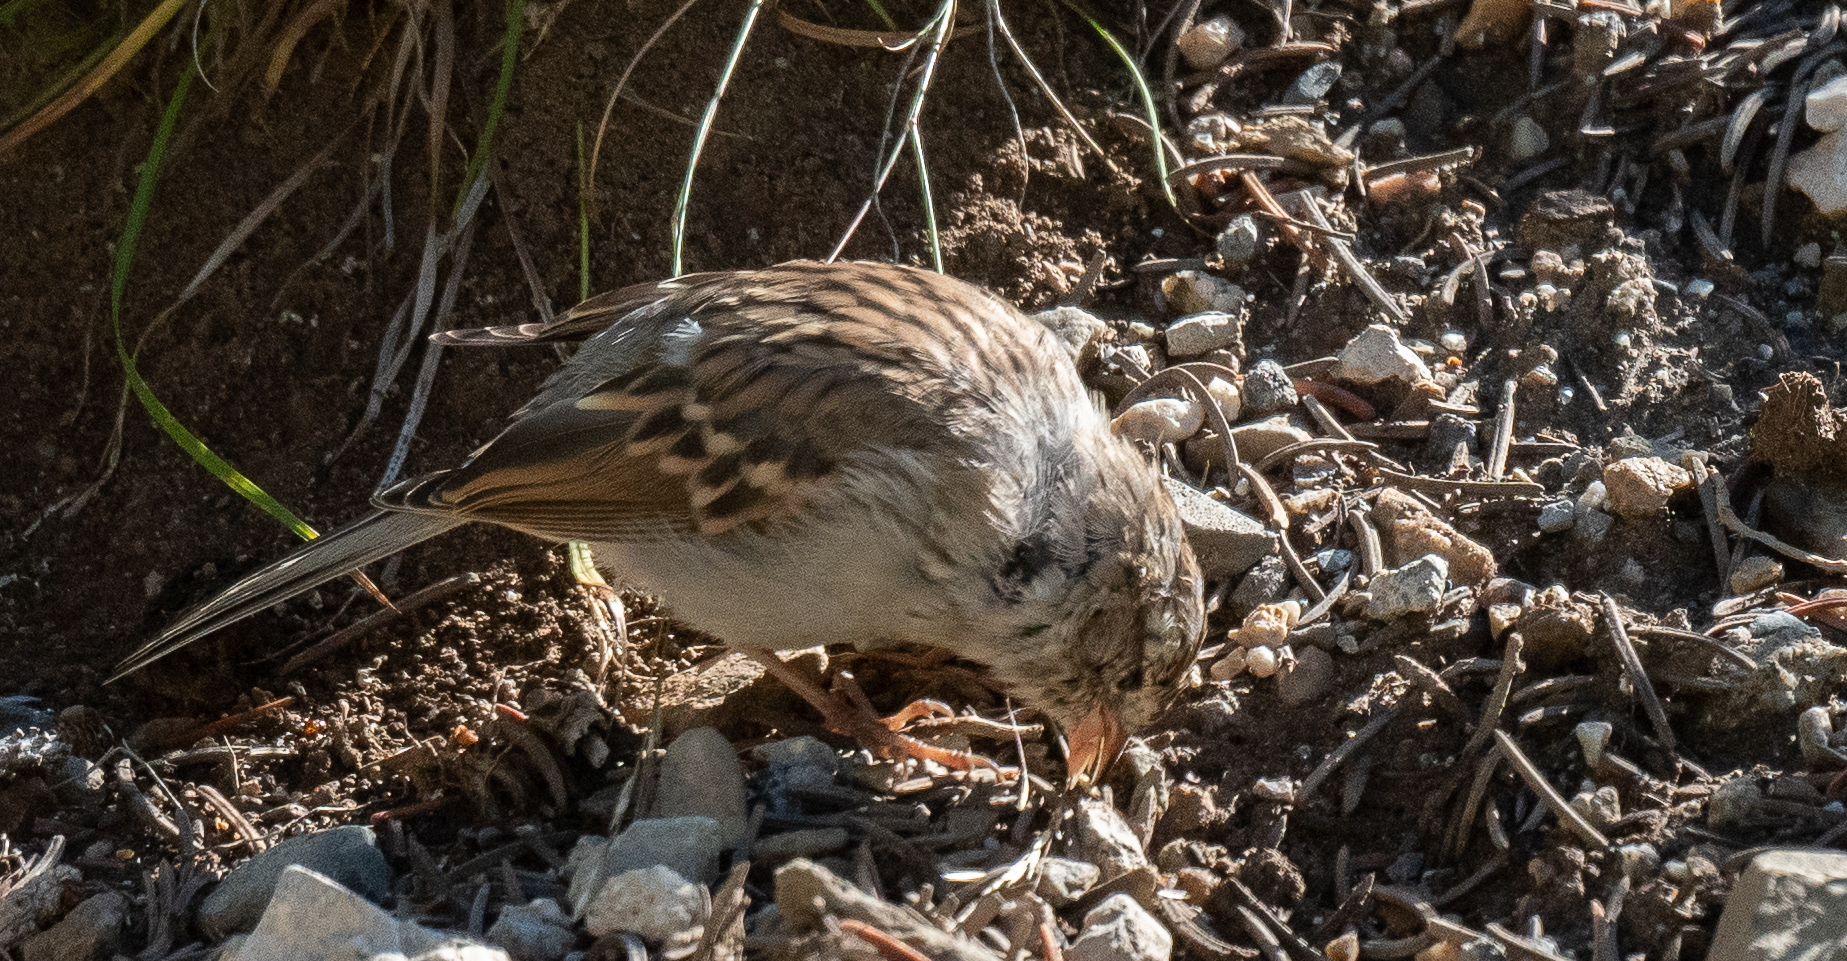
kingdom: Animalia
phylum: Chordata
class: Aves
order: Passeriformes
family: Passerellidae
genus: Spizella
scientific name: Spizella passerina
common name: Chipping sparrow
